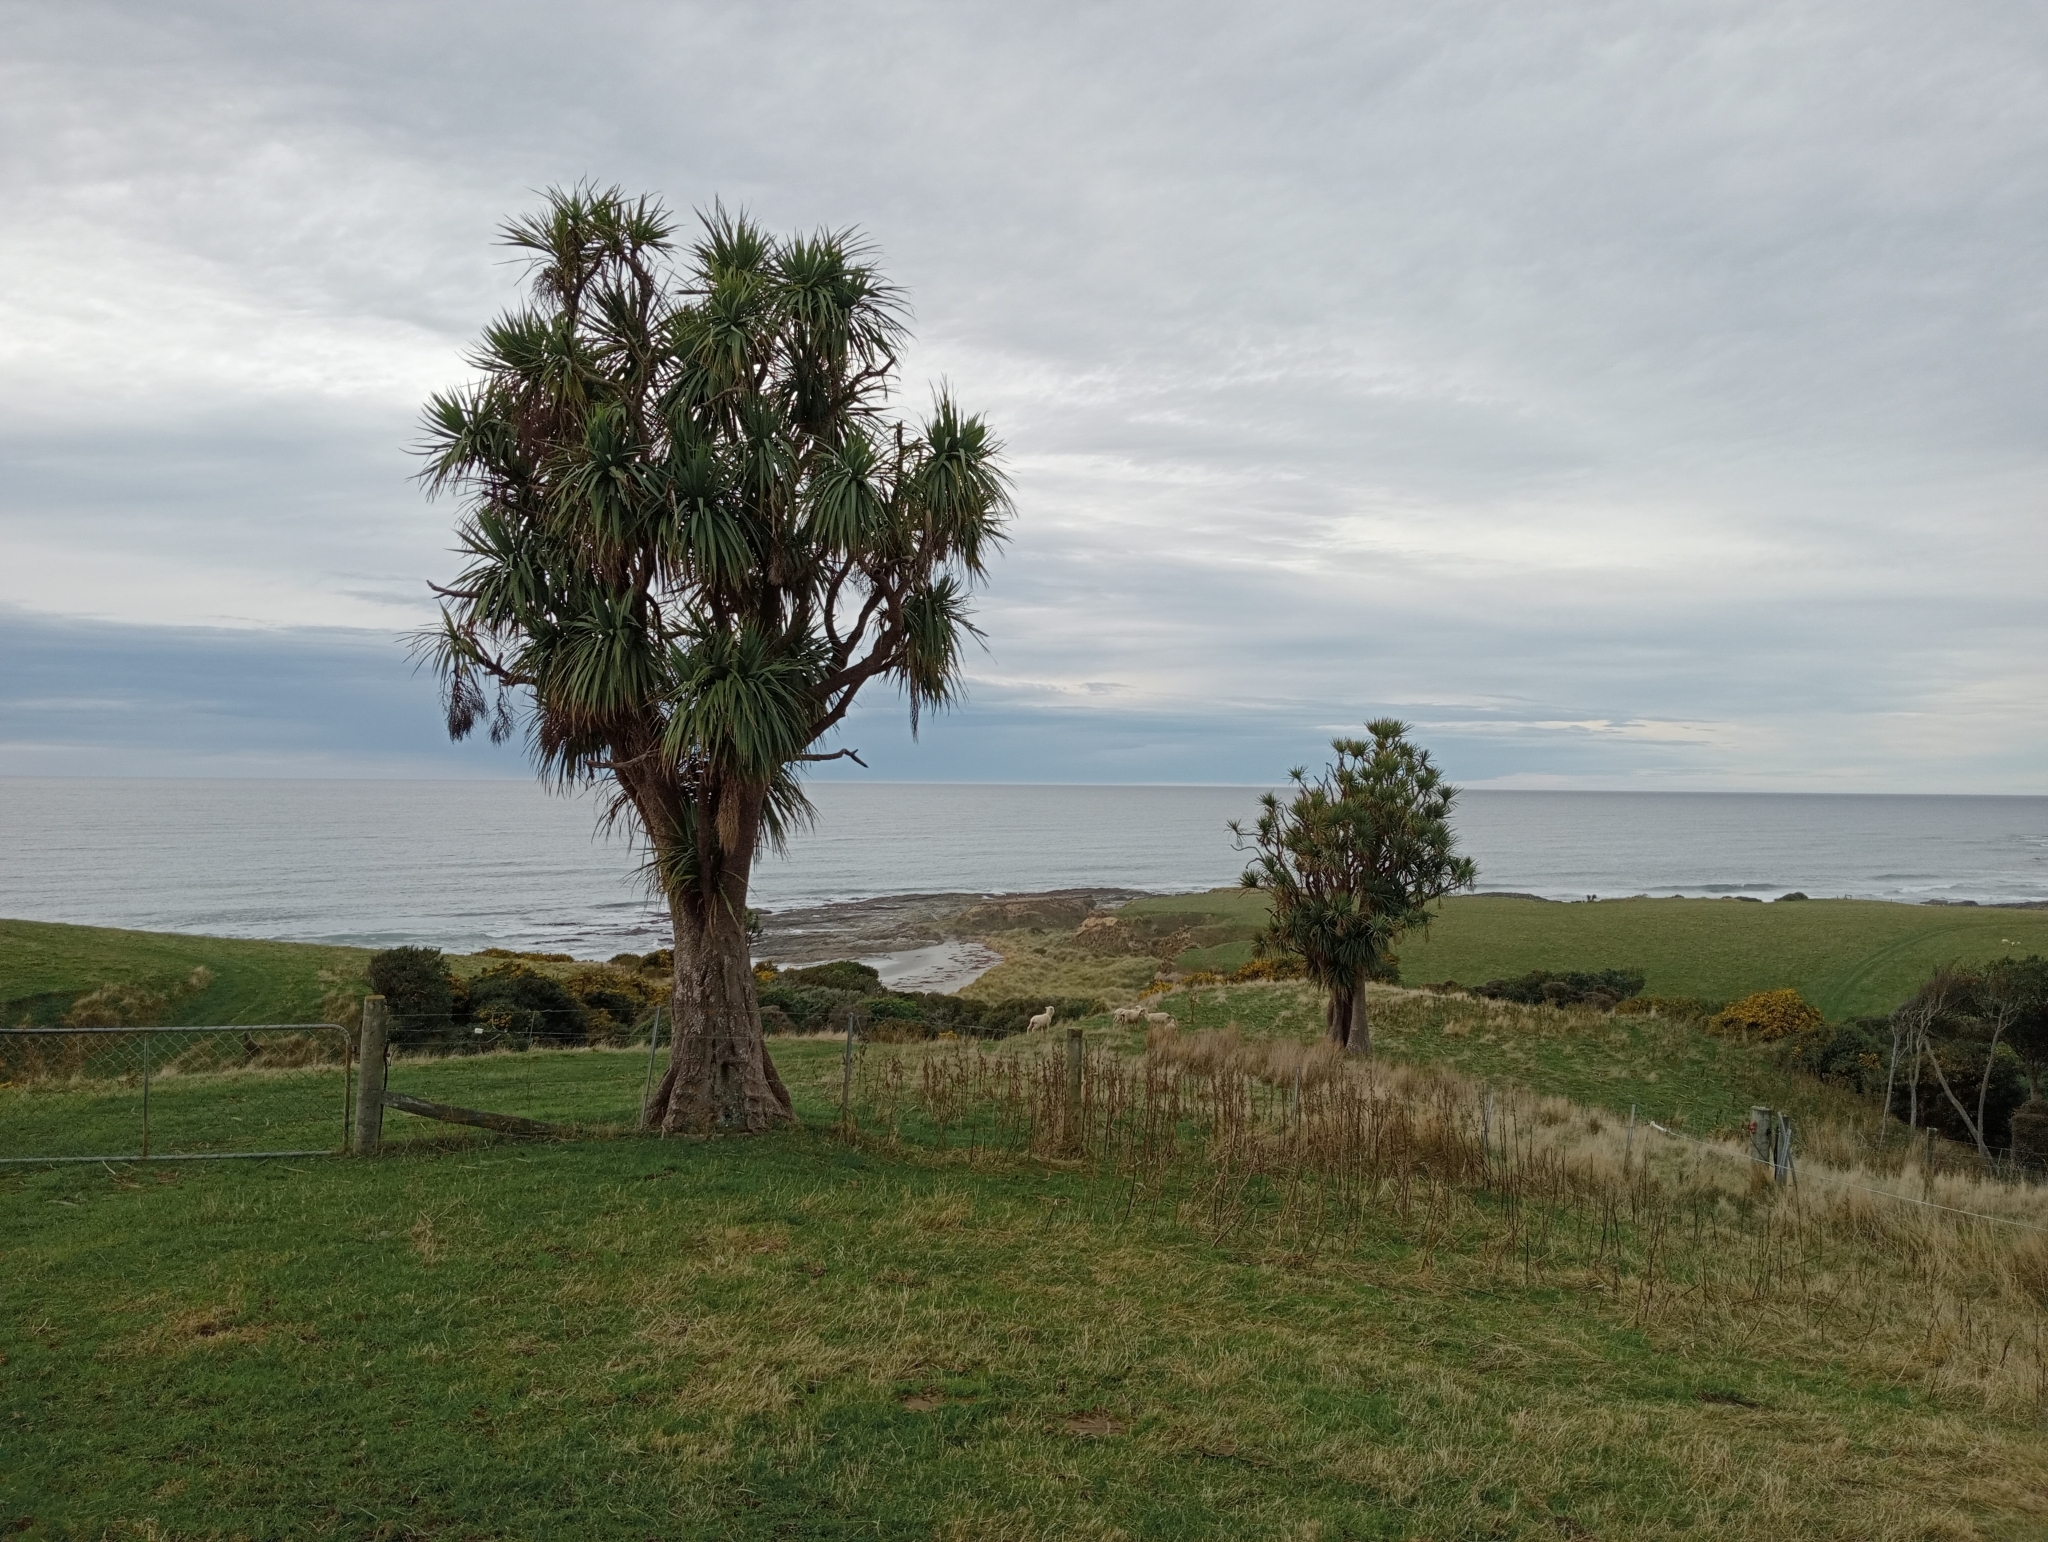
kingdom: Plantae
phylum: Tracheophyta
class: Liliopsida
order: Asparagales
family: Asparagaceae
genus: Cordyline
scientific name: Cordyline australis
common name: Cabbage-palm
